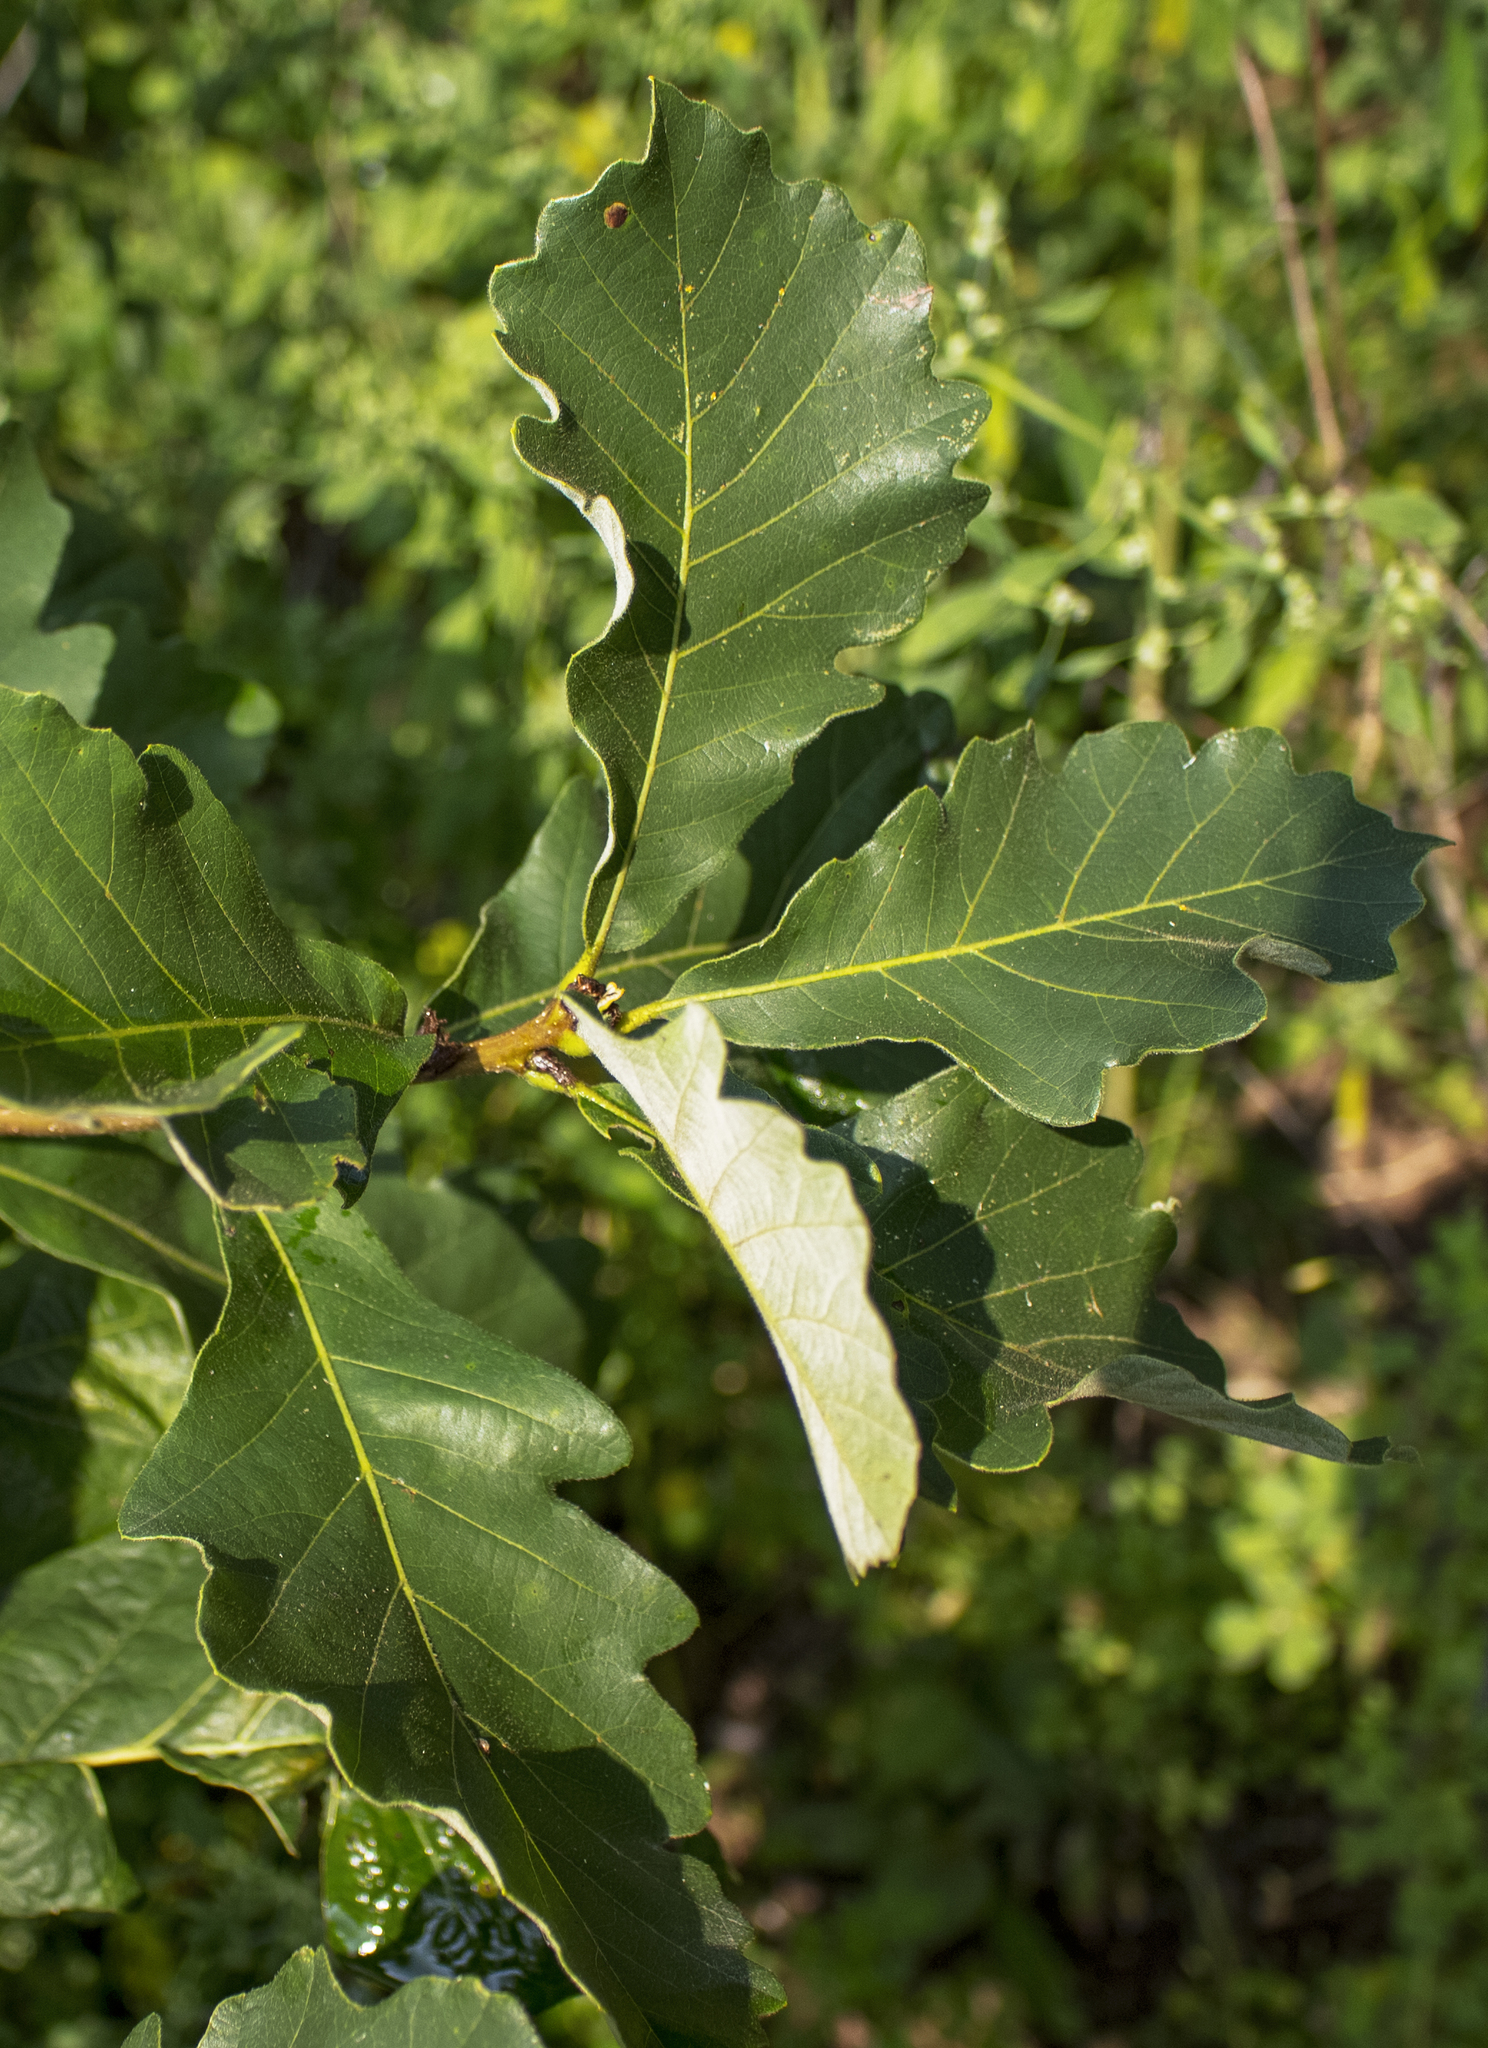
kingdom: Plantae
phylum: Tracheophyta
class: Magnoliopsida
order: Fagales
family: Fagaceae
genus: Quercus
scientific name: Quercus bicolor
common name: Swamp white oak
